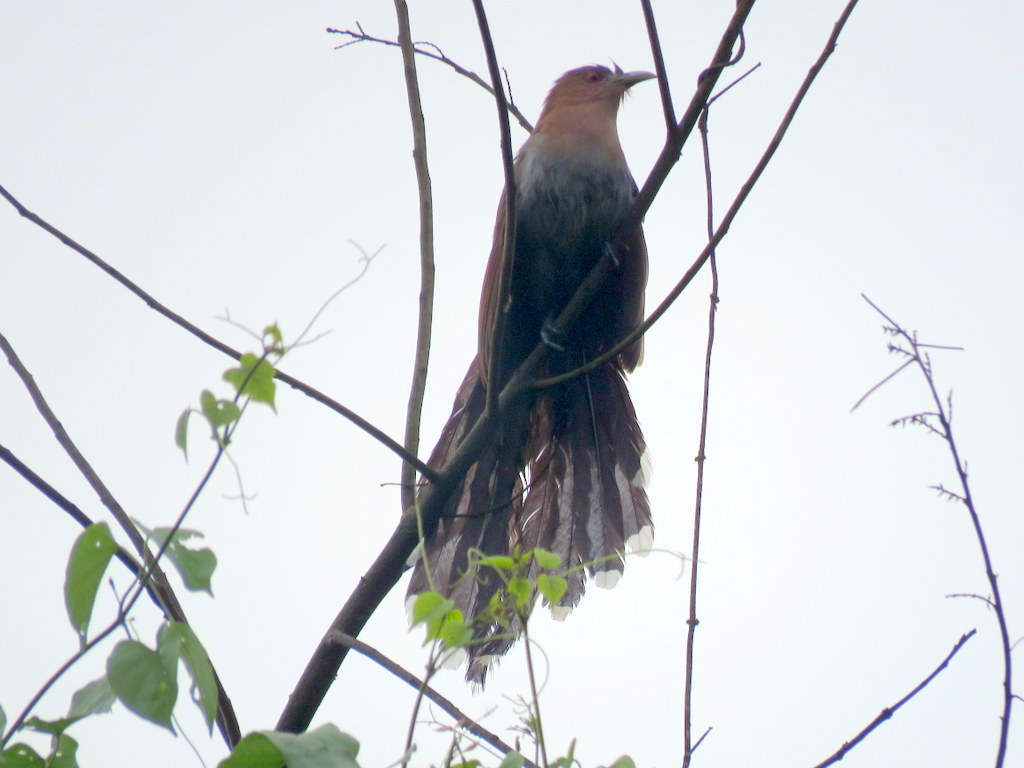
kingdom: Animalia
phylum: Chordata
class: Aves
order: Cuculiformes
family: Cuculidae
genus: Piaya
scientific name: Piaya cayana
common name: Squirrel cuckoo
